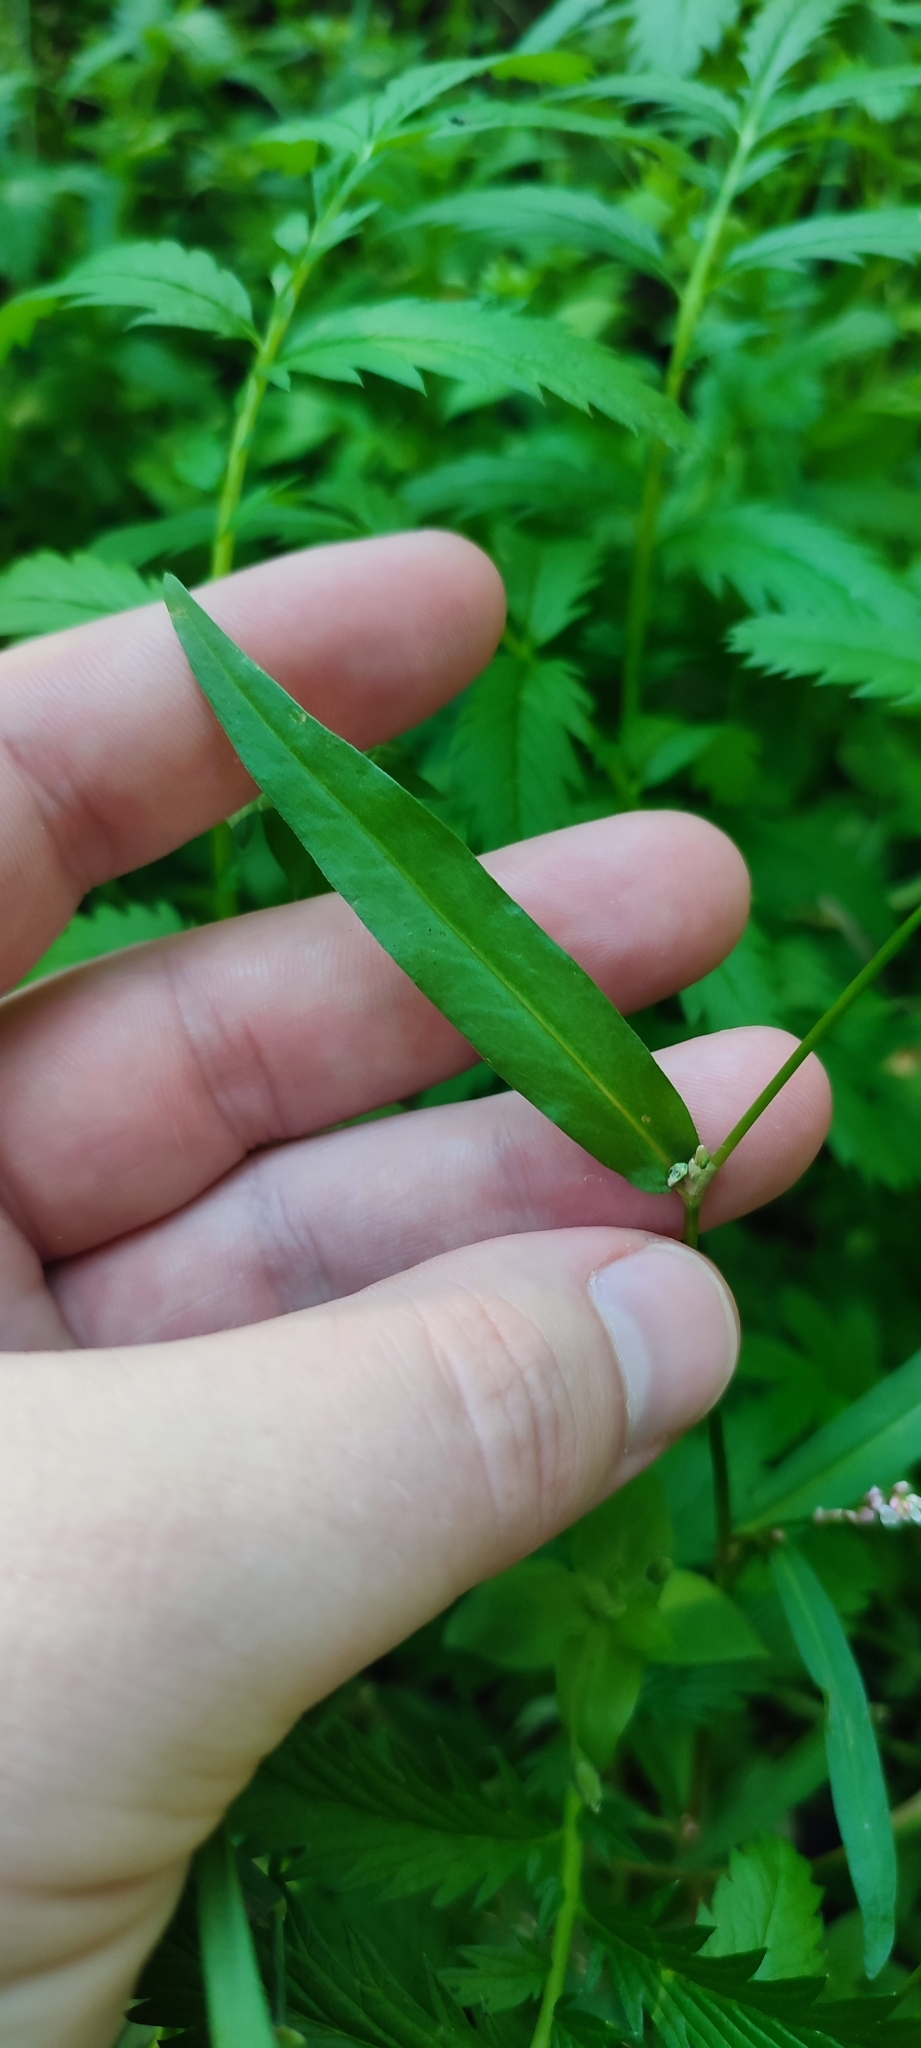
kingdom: Plantae
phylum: Tracheophyta
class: Magnoliopsida
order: Caryophyllales
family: Polygonaceae
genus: Persicaria
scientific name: Persicaria minor
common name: Small water-pepper
